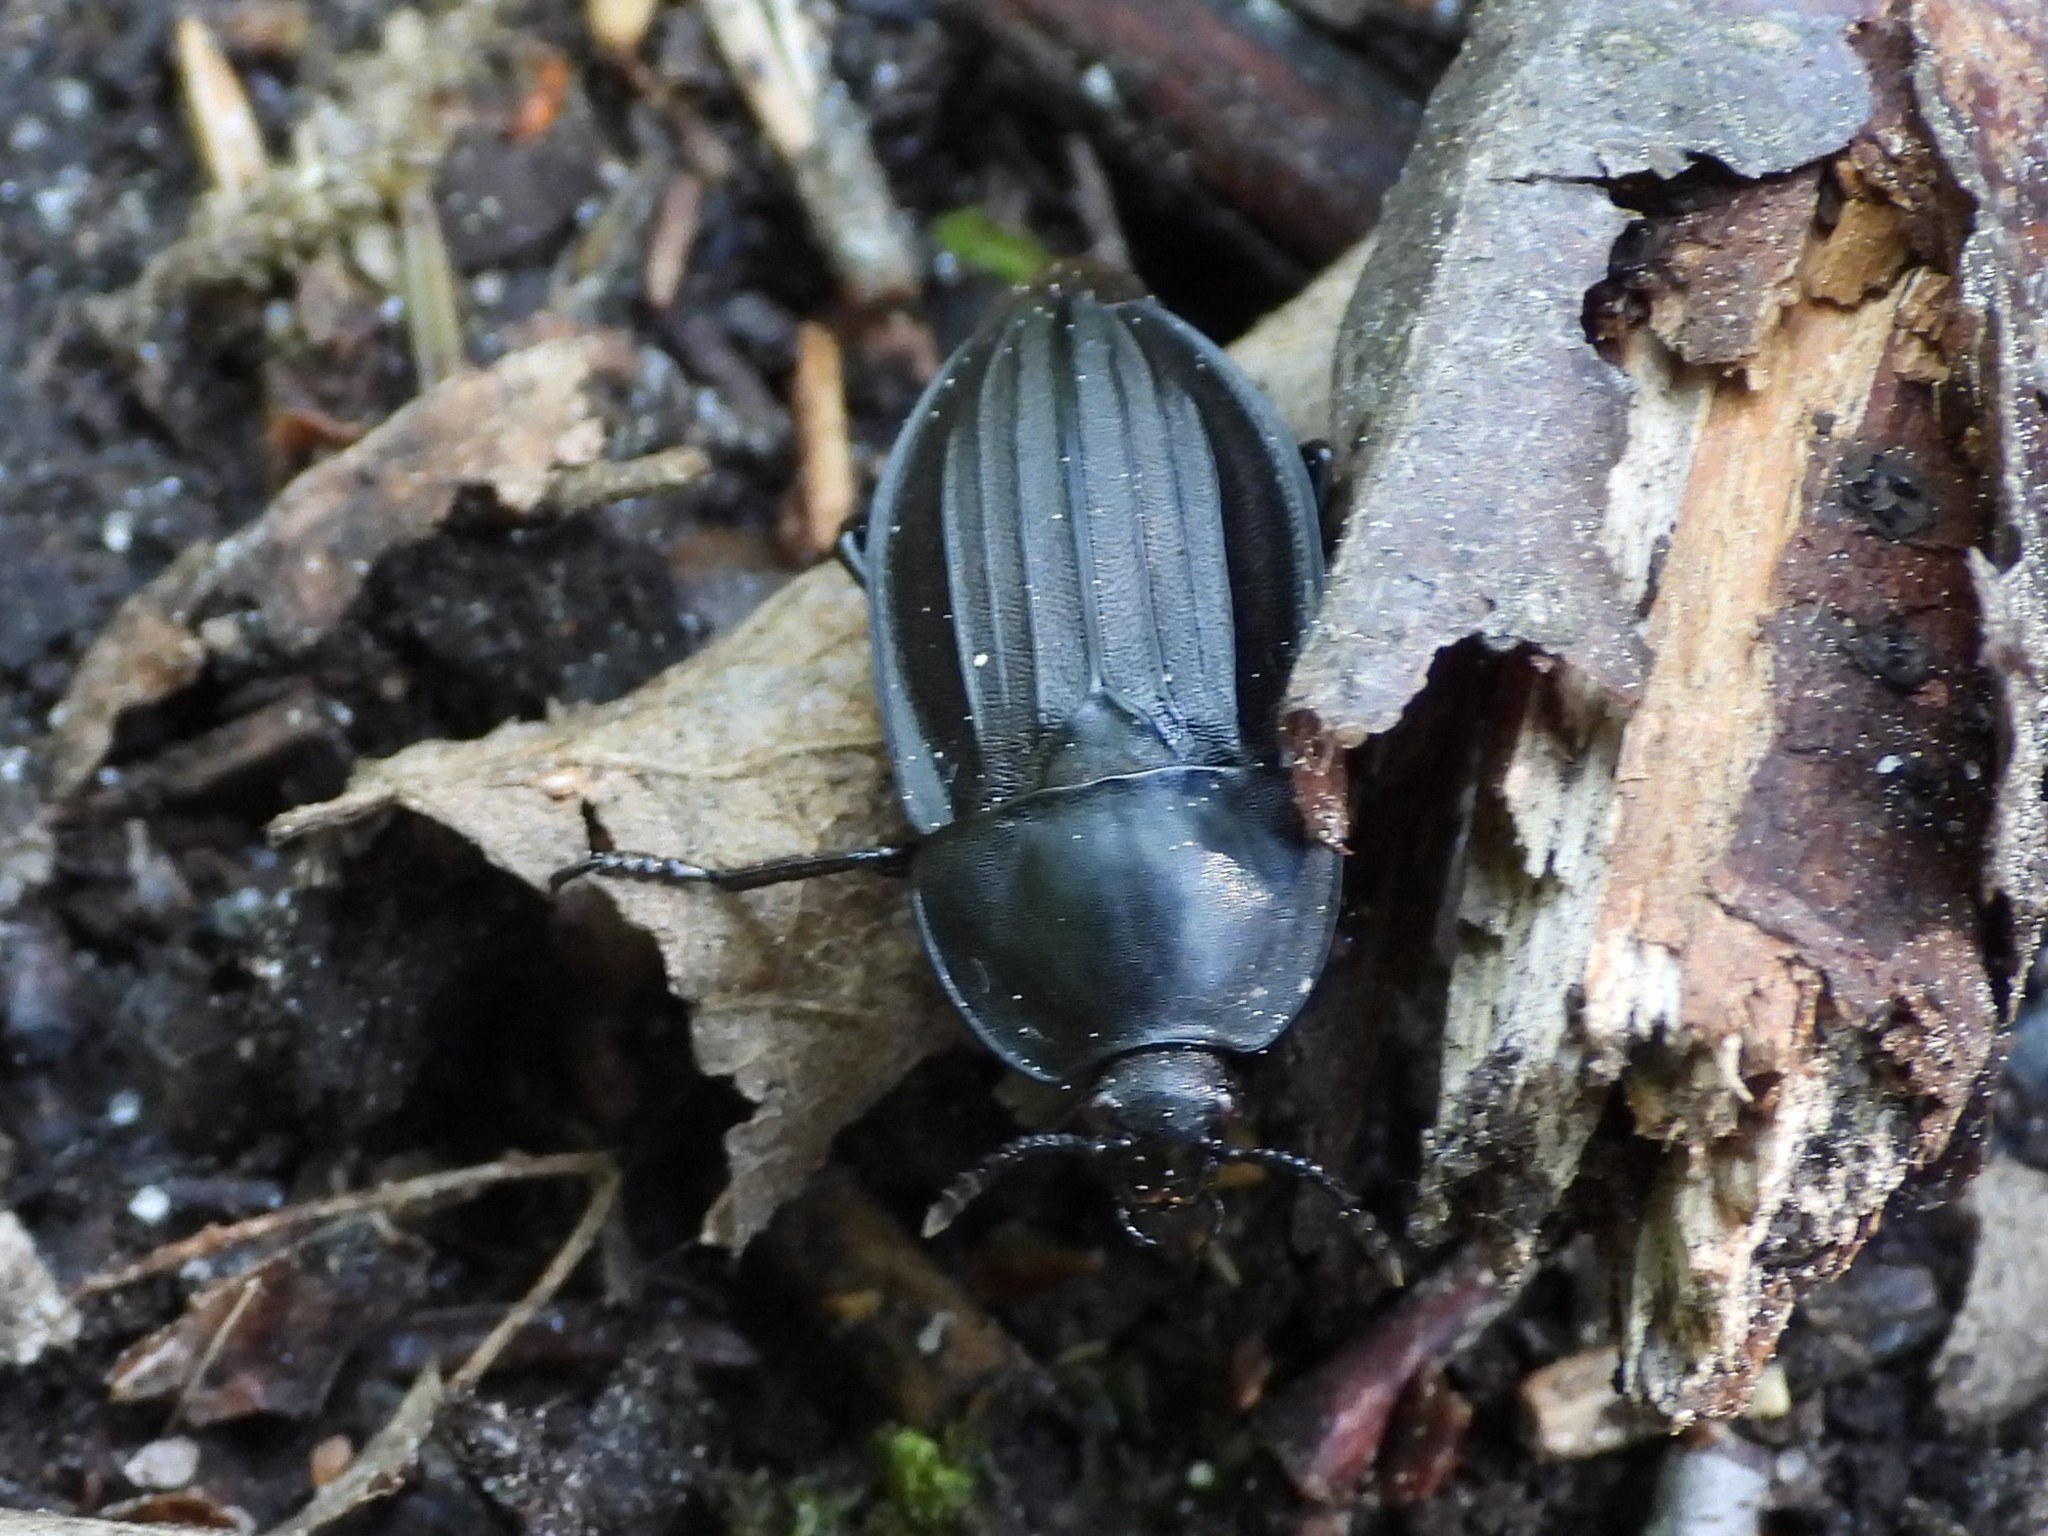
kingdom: Animalia
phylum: Arthropoda
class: Insecta
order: Coleoptera
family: Staphylinidae
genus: Silpha
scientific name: Silpha carinata
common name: Silphid beetle
